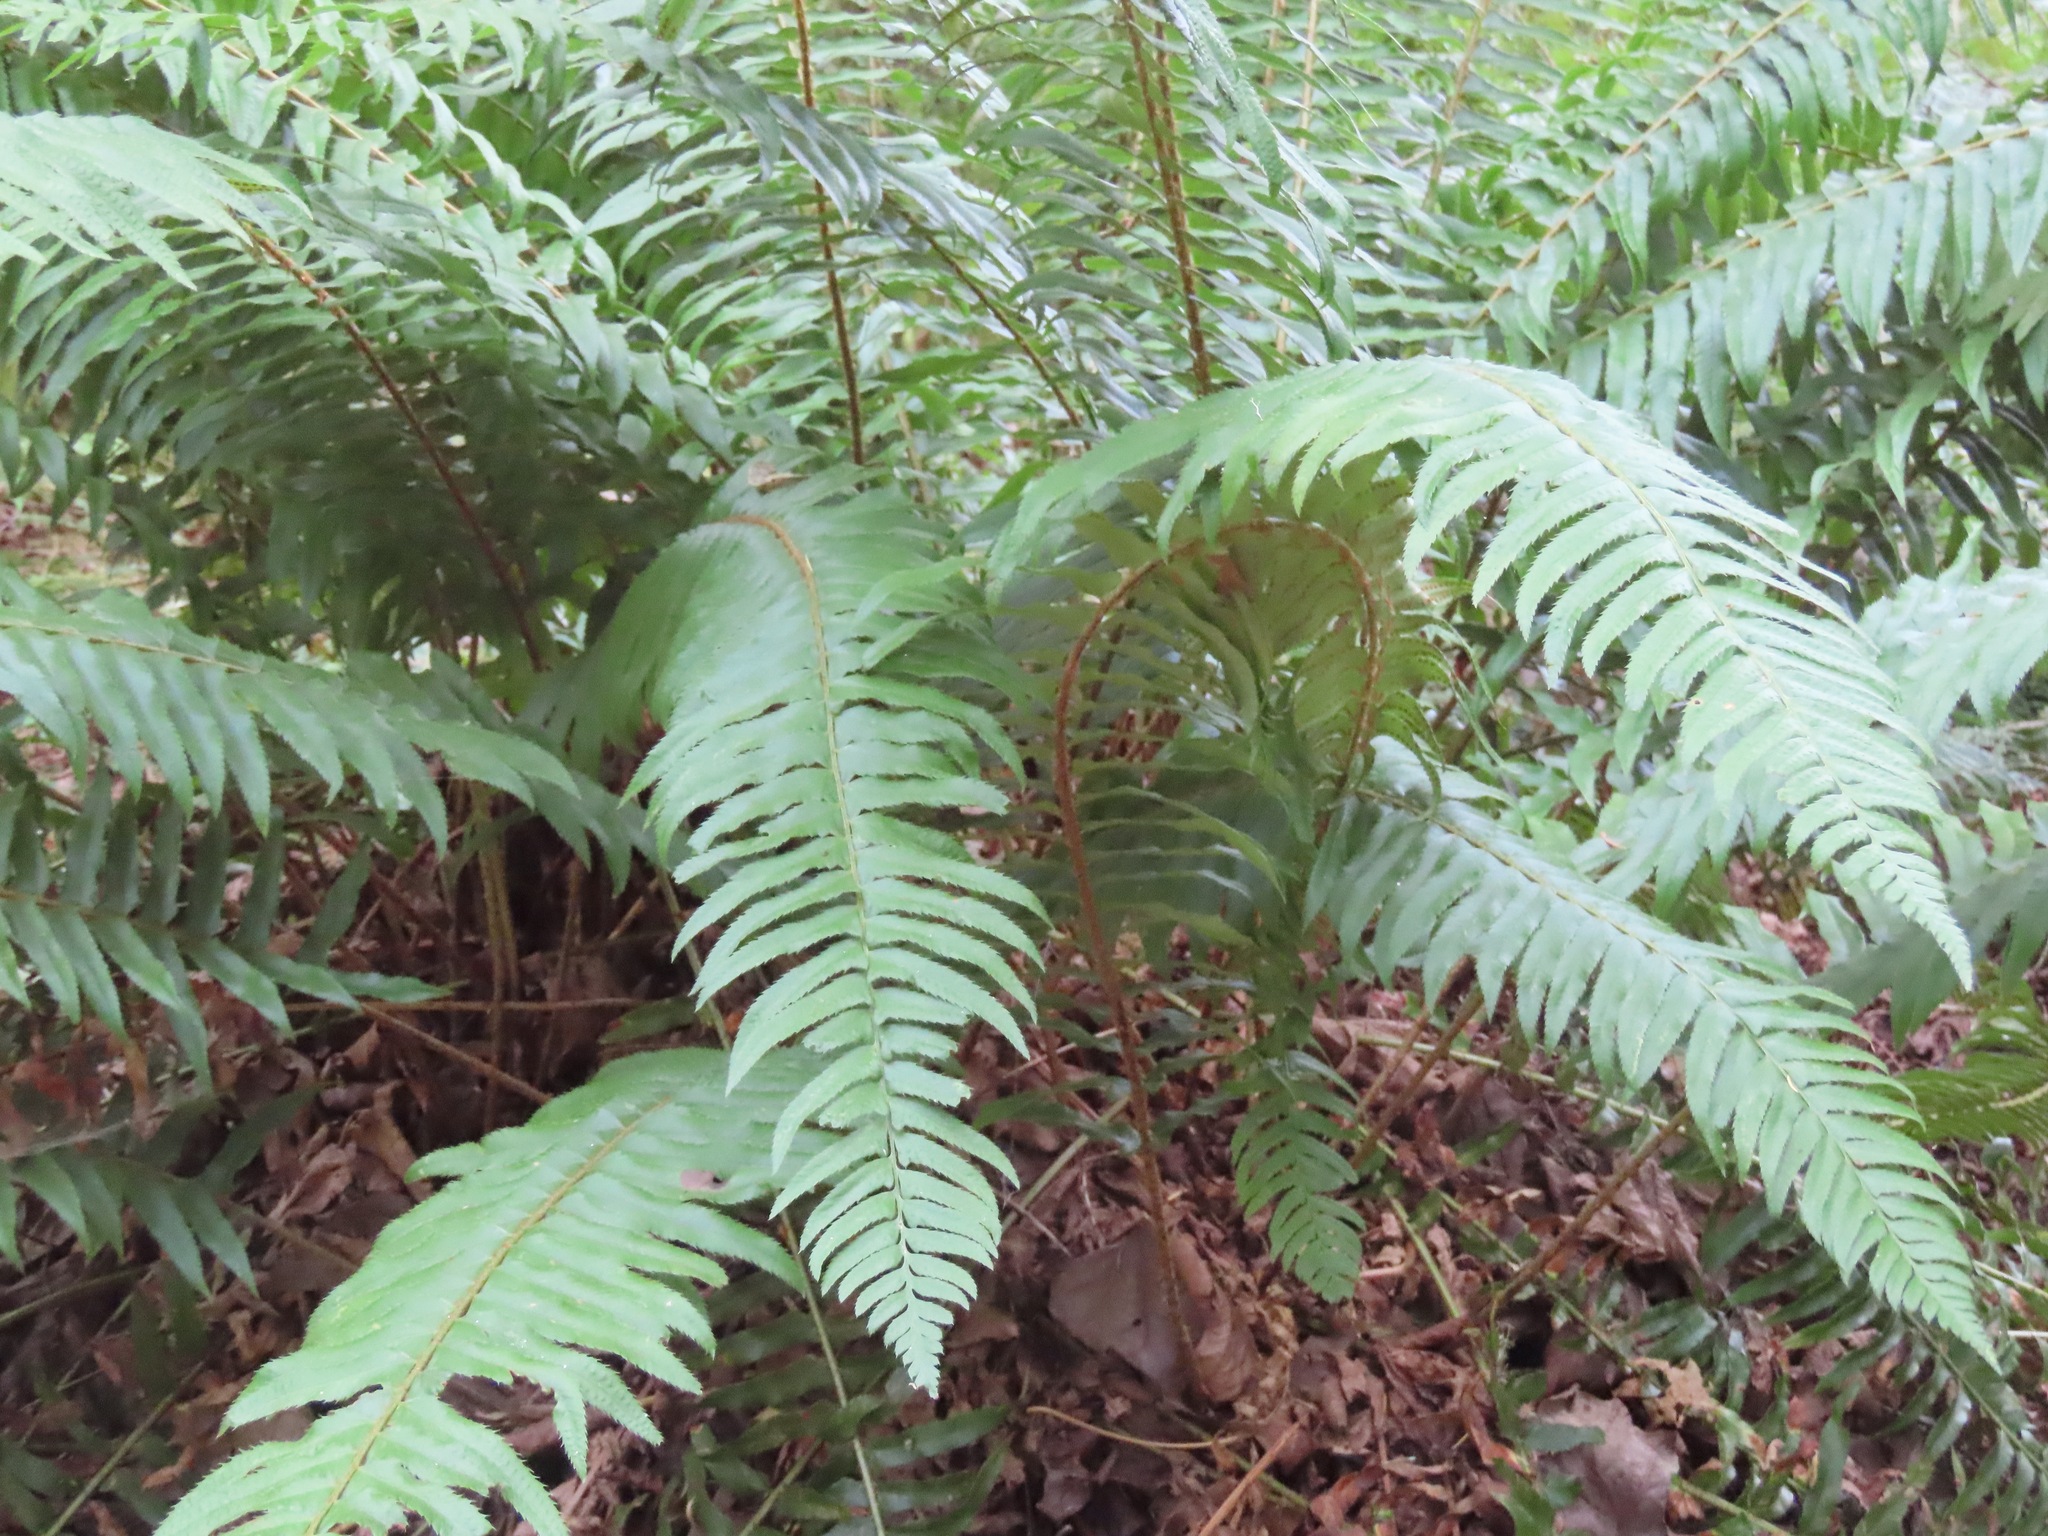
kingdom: Plantae
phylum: Tracheophyta
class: Polypodiopsida
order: Polypodiales
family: Dryopteridaceae
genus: Polystichum
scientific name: Polystichum munitum
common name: Western sword-fern
